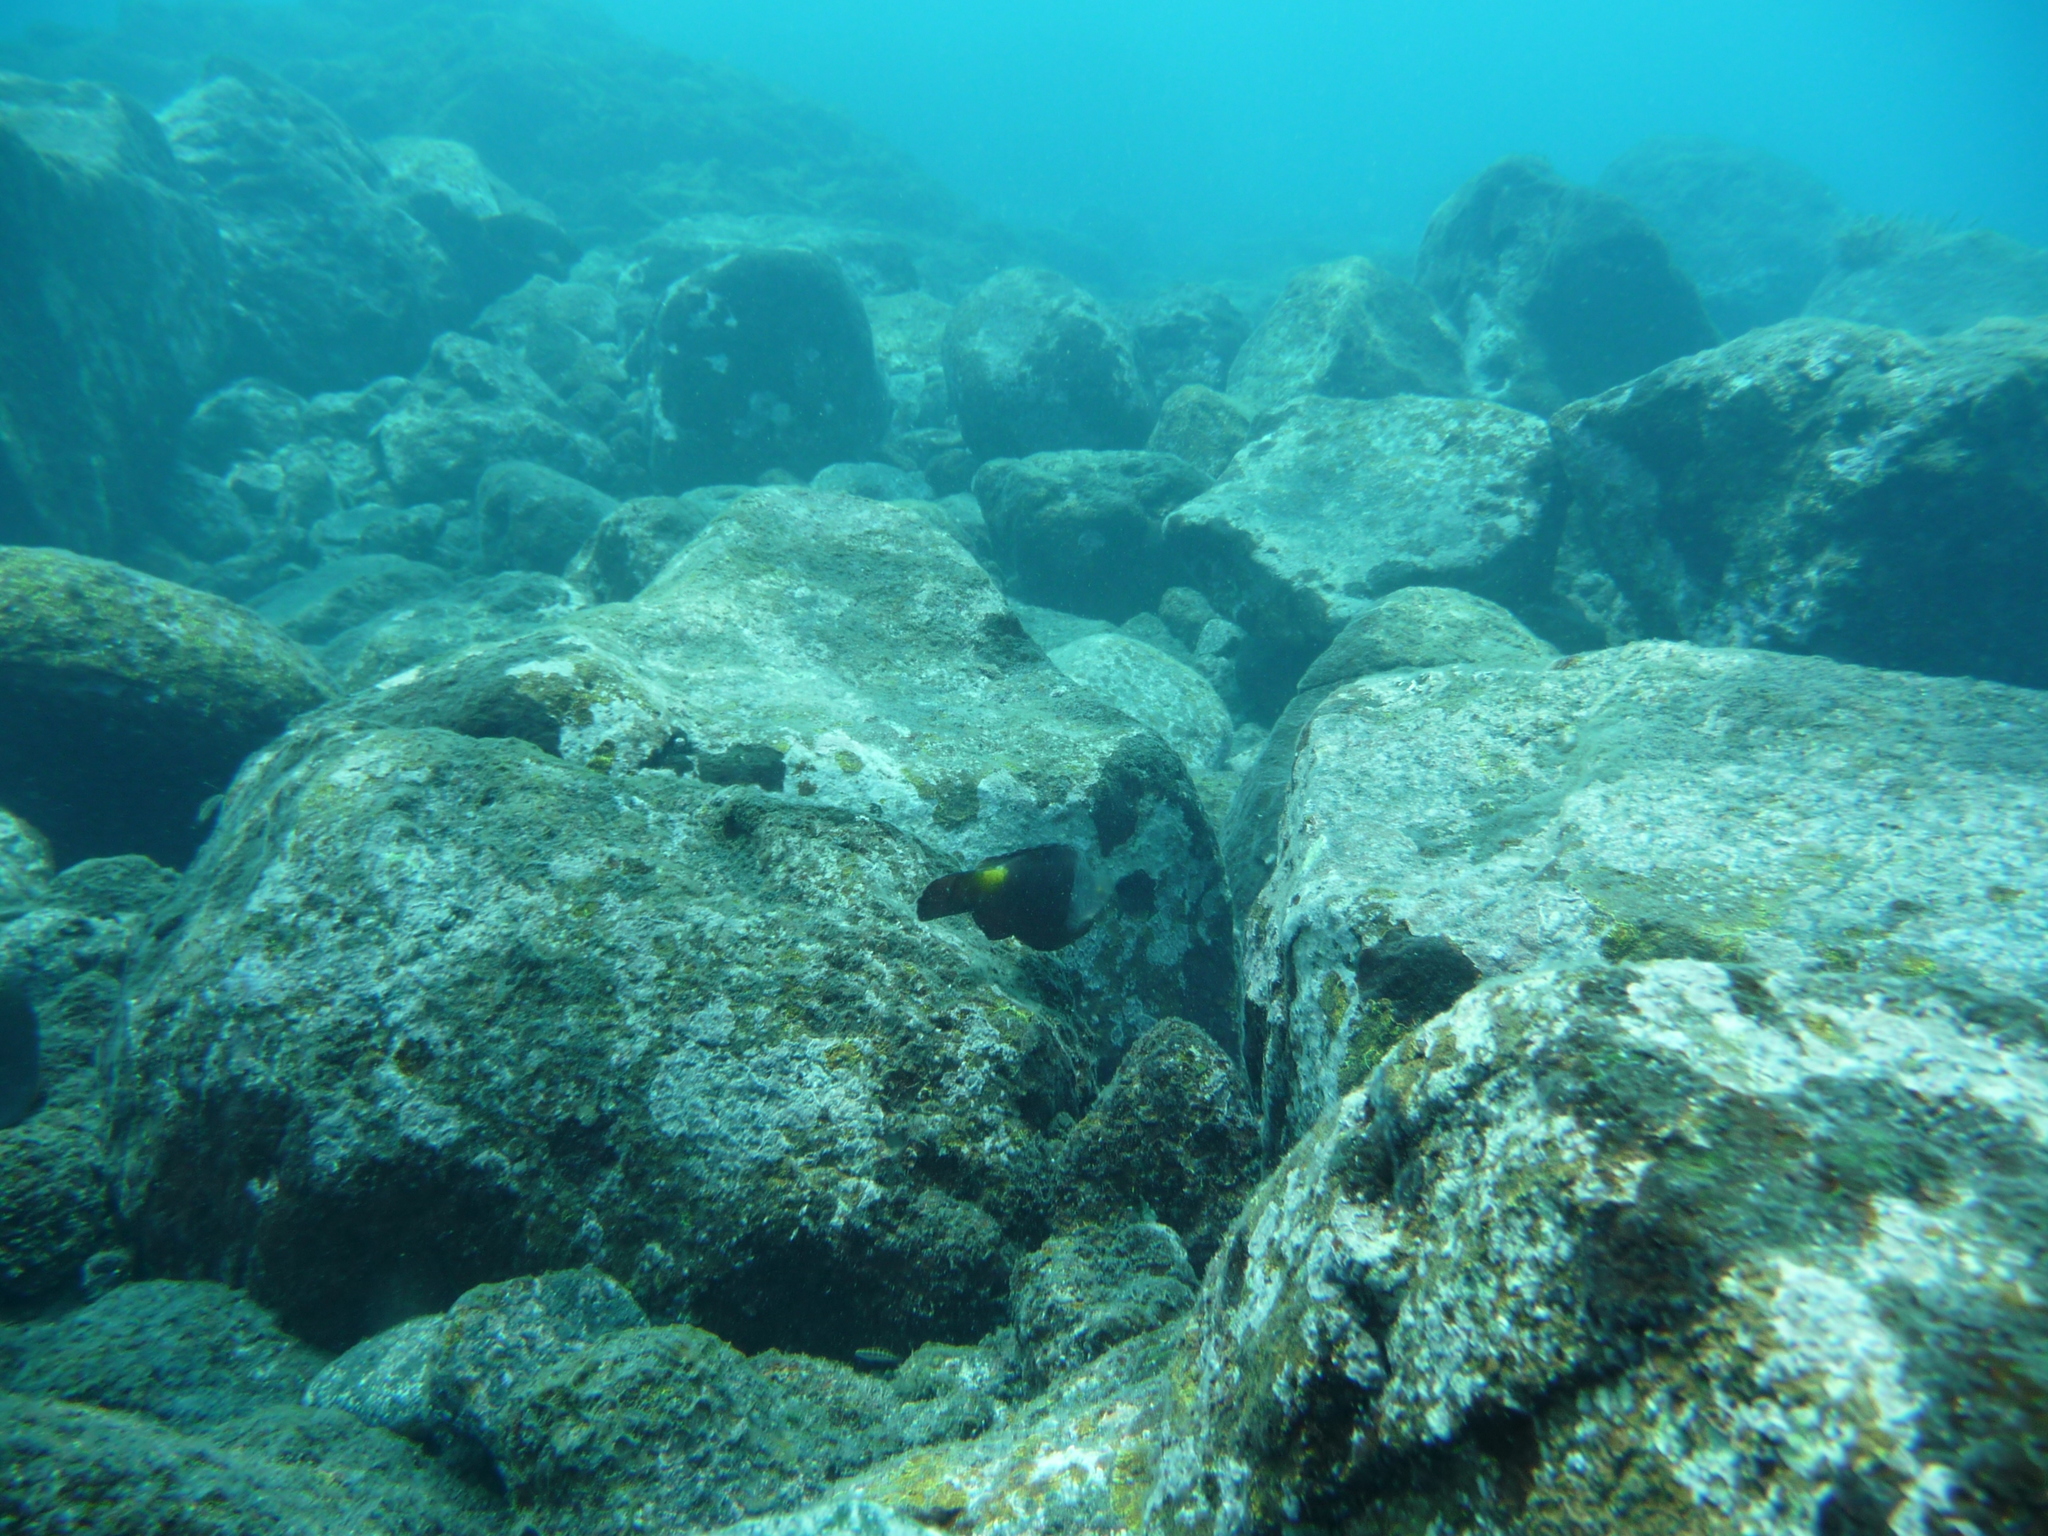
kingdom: Animalia
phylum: Chordata
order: Perciformes
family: Scaridae
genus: Sparisoma
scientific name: Sparisoma cretense
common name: Parrotfish
